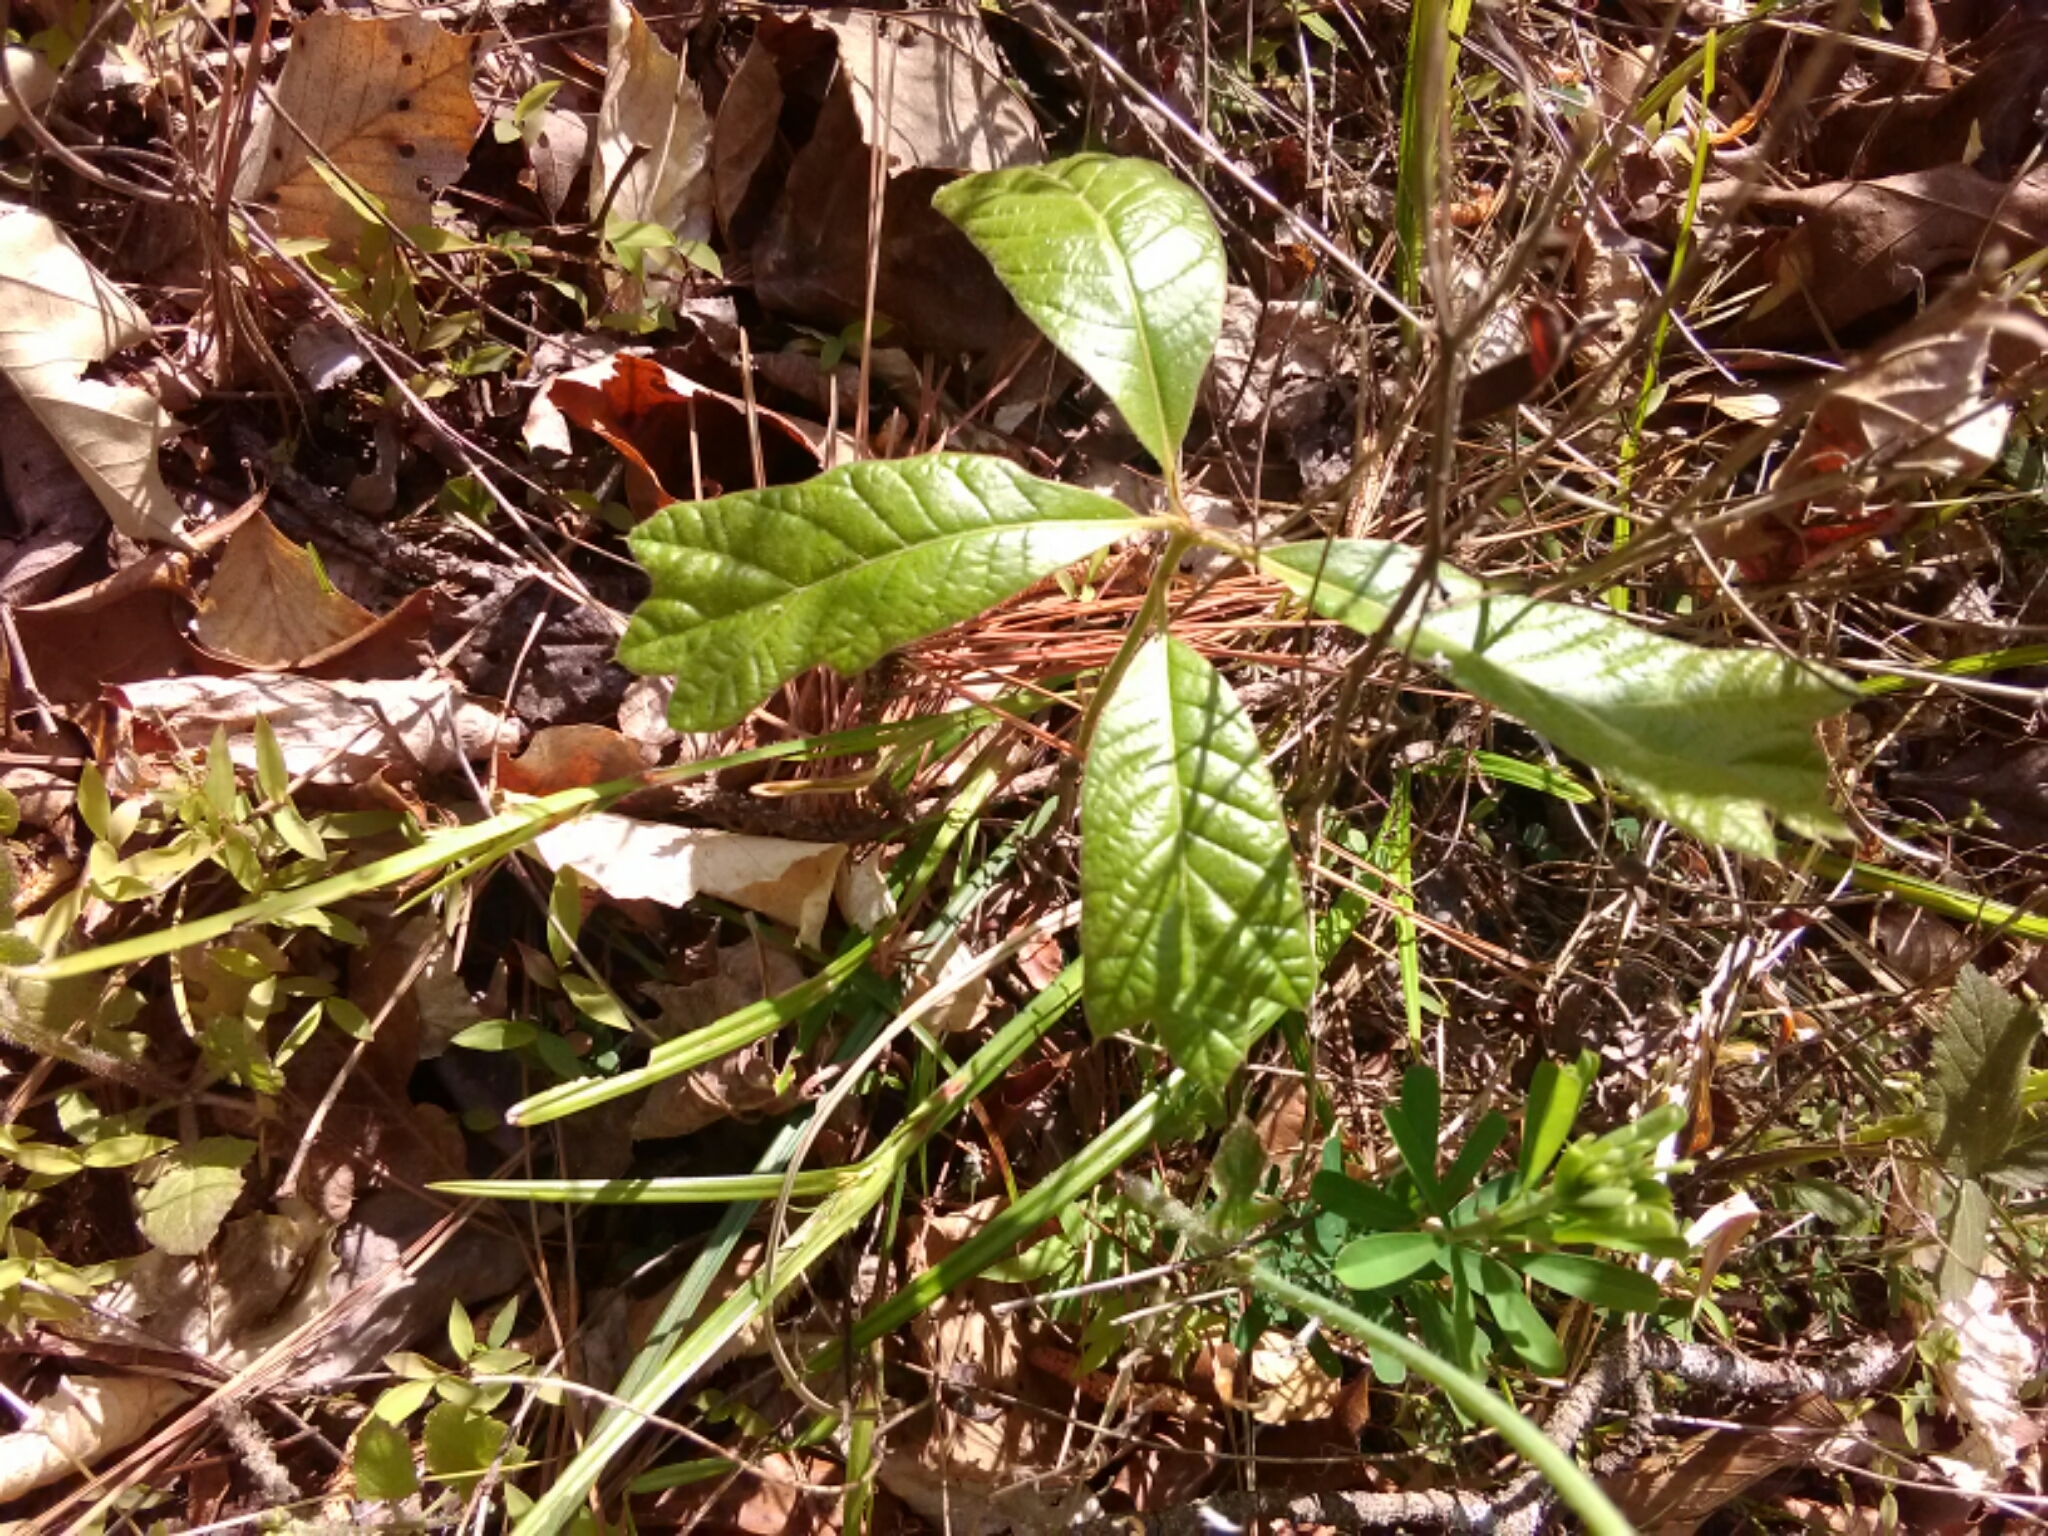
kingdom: Plantae
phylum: Tracheophyta
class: Magnoliopsida
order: Fagales
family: Fagaceae
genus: Quercus
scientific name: Quercus falcata
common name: Southern red oak
